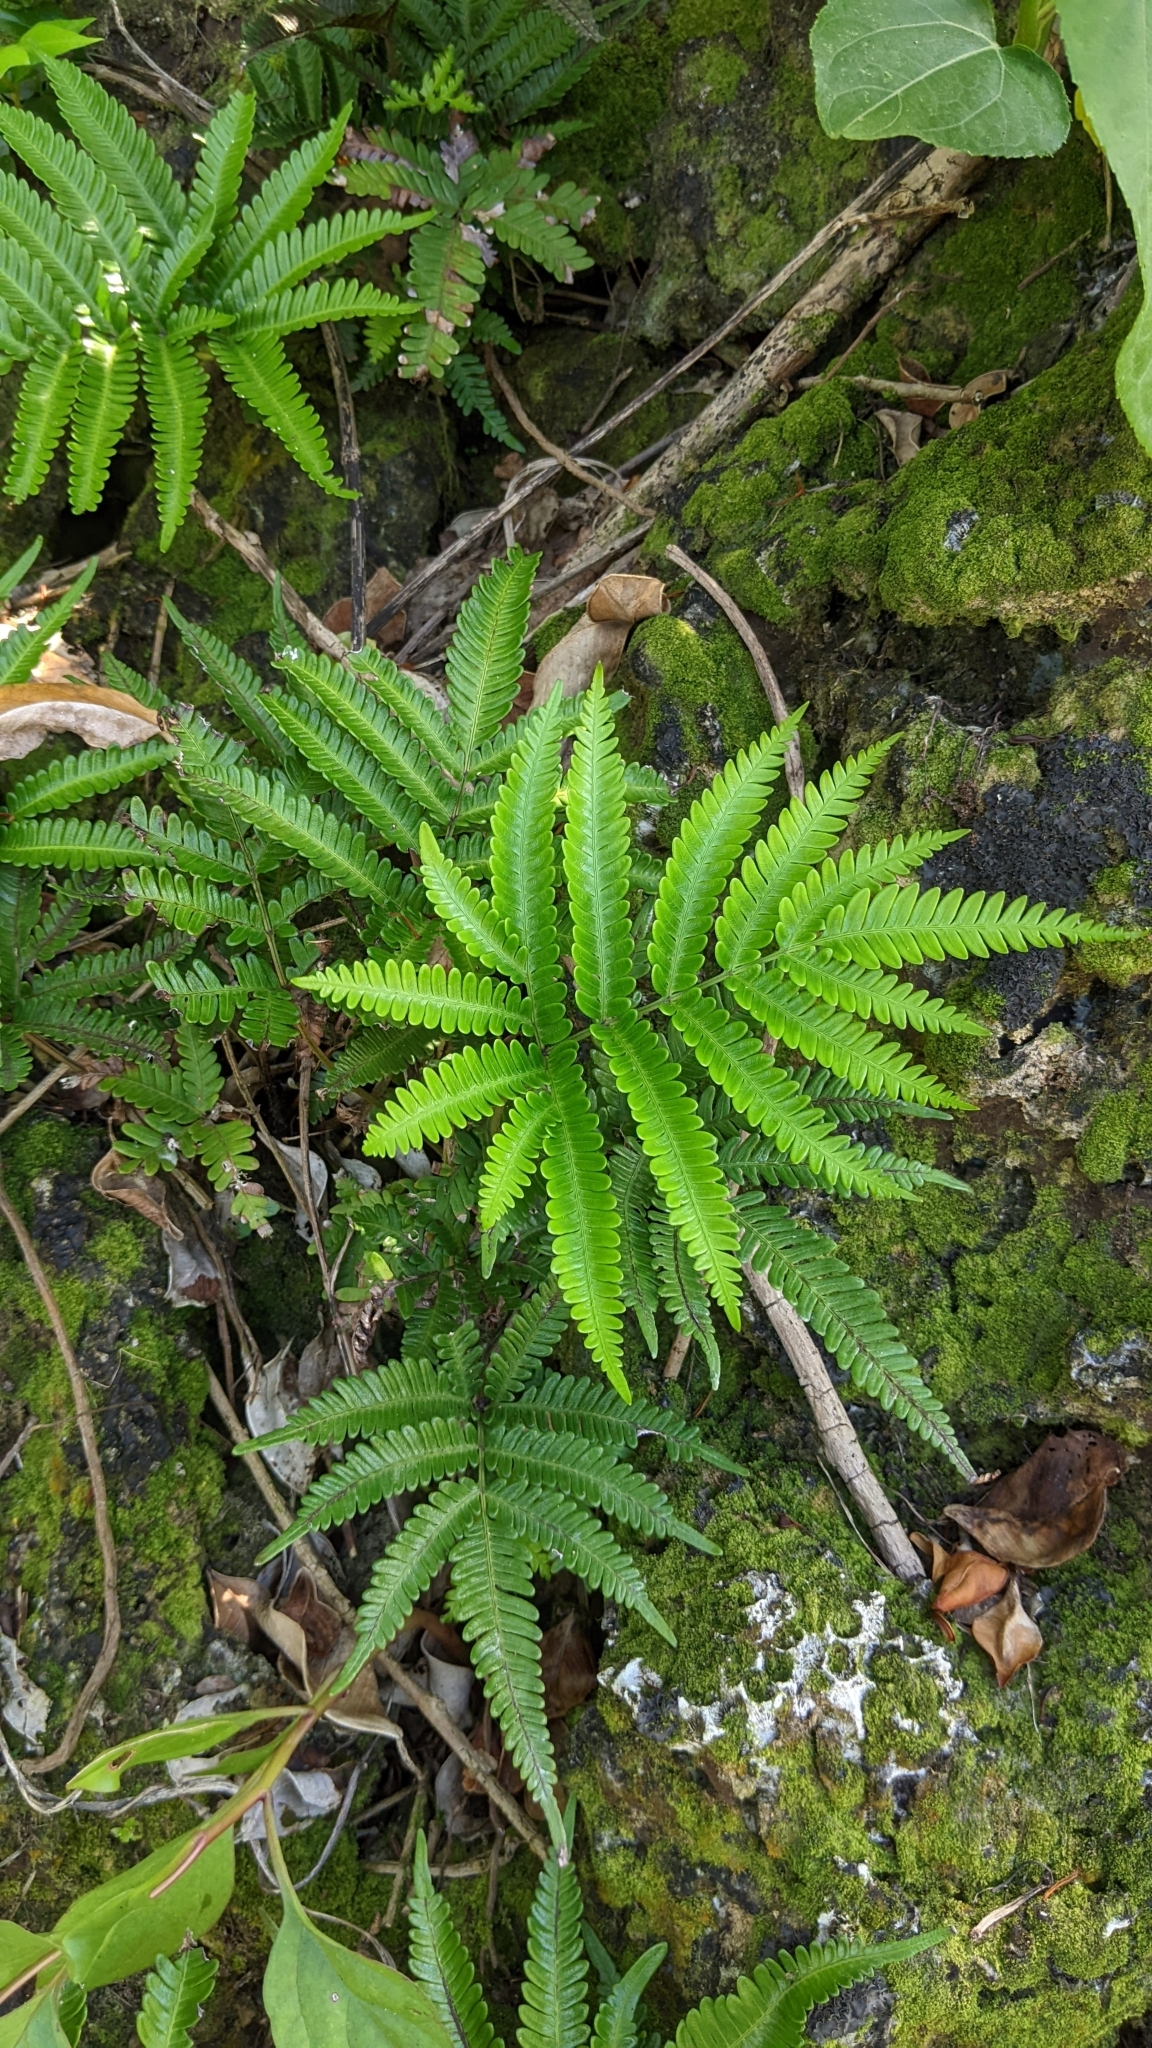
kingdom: Plantae
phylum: Tracheophyta
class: Polypodiopsida
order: Polypodiales
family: Pteridaceae
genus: Pteris
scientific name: Pteris minor
